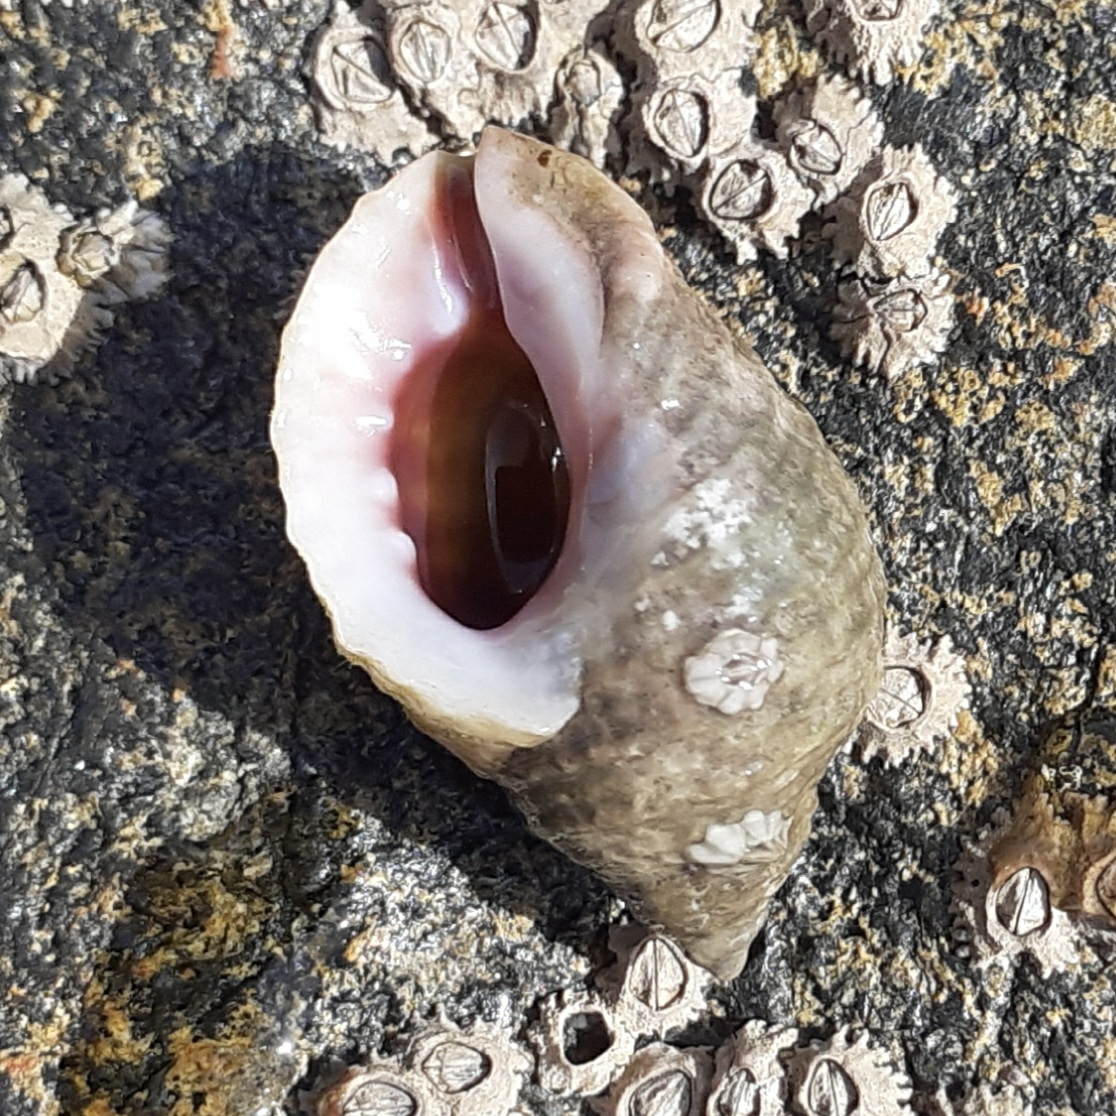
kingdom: Animalia
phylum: Mollusca
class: Gastropoda
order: Neogastropoda
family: Muricidae
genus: Nucella
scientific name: Nucella lapillus
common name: Dog whelk
